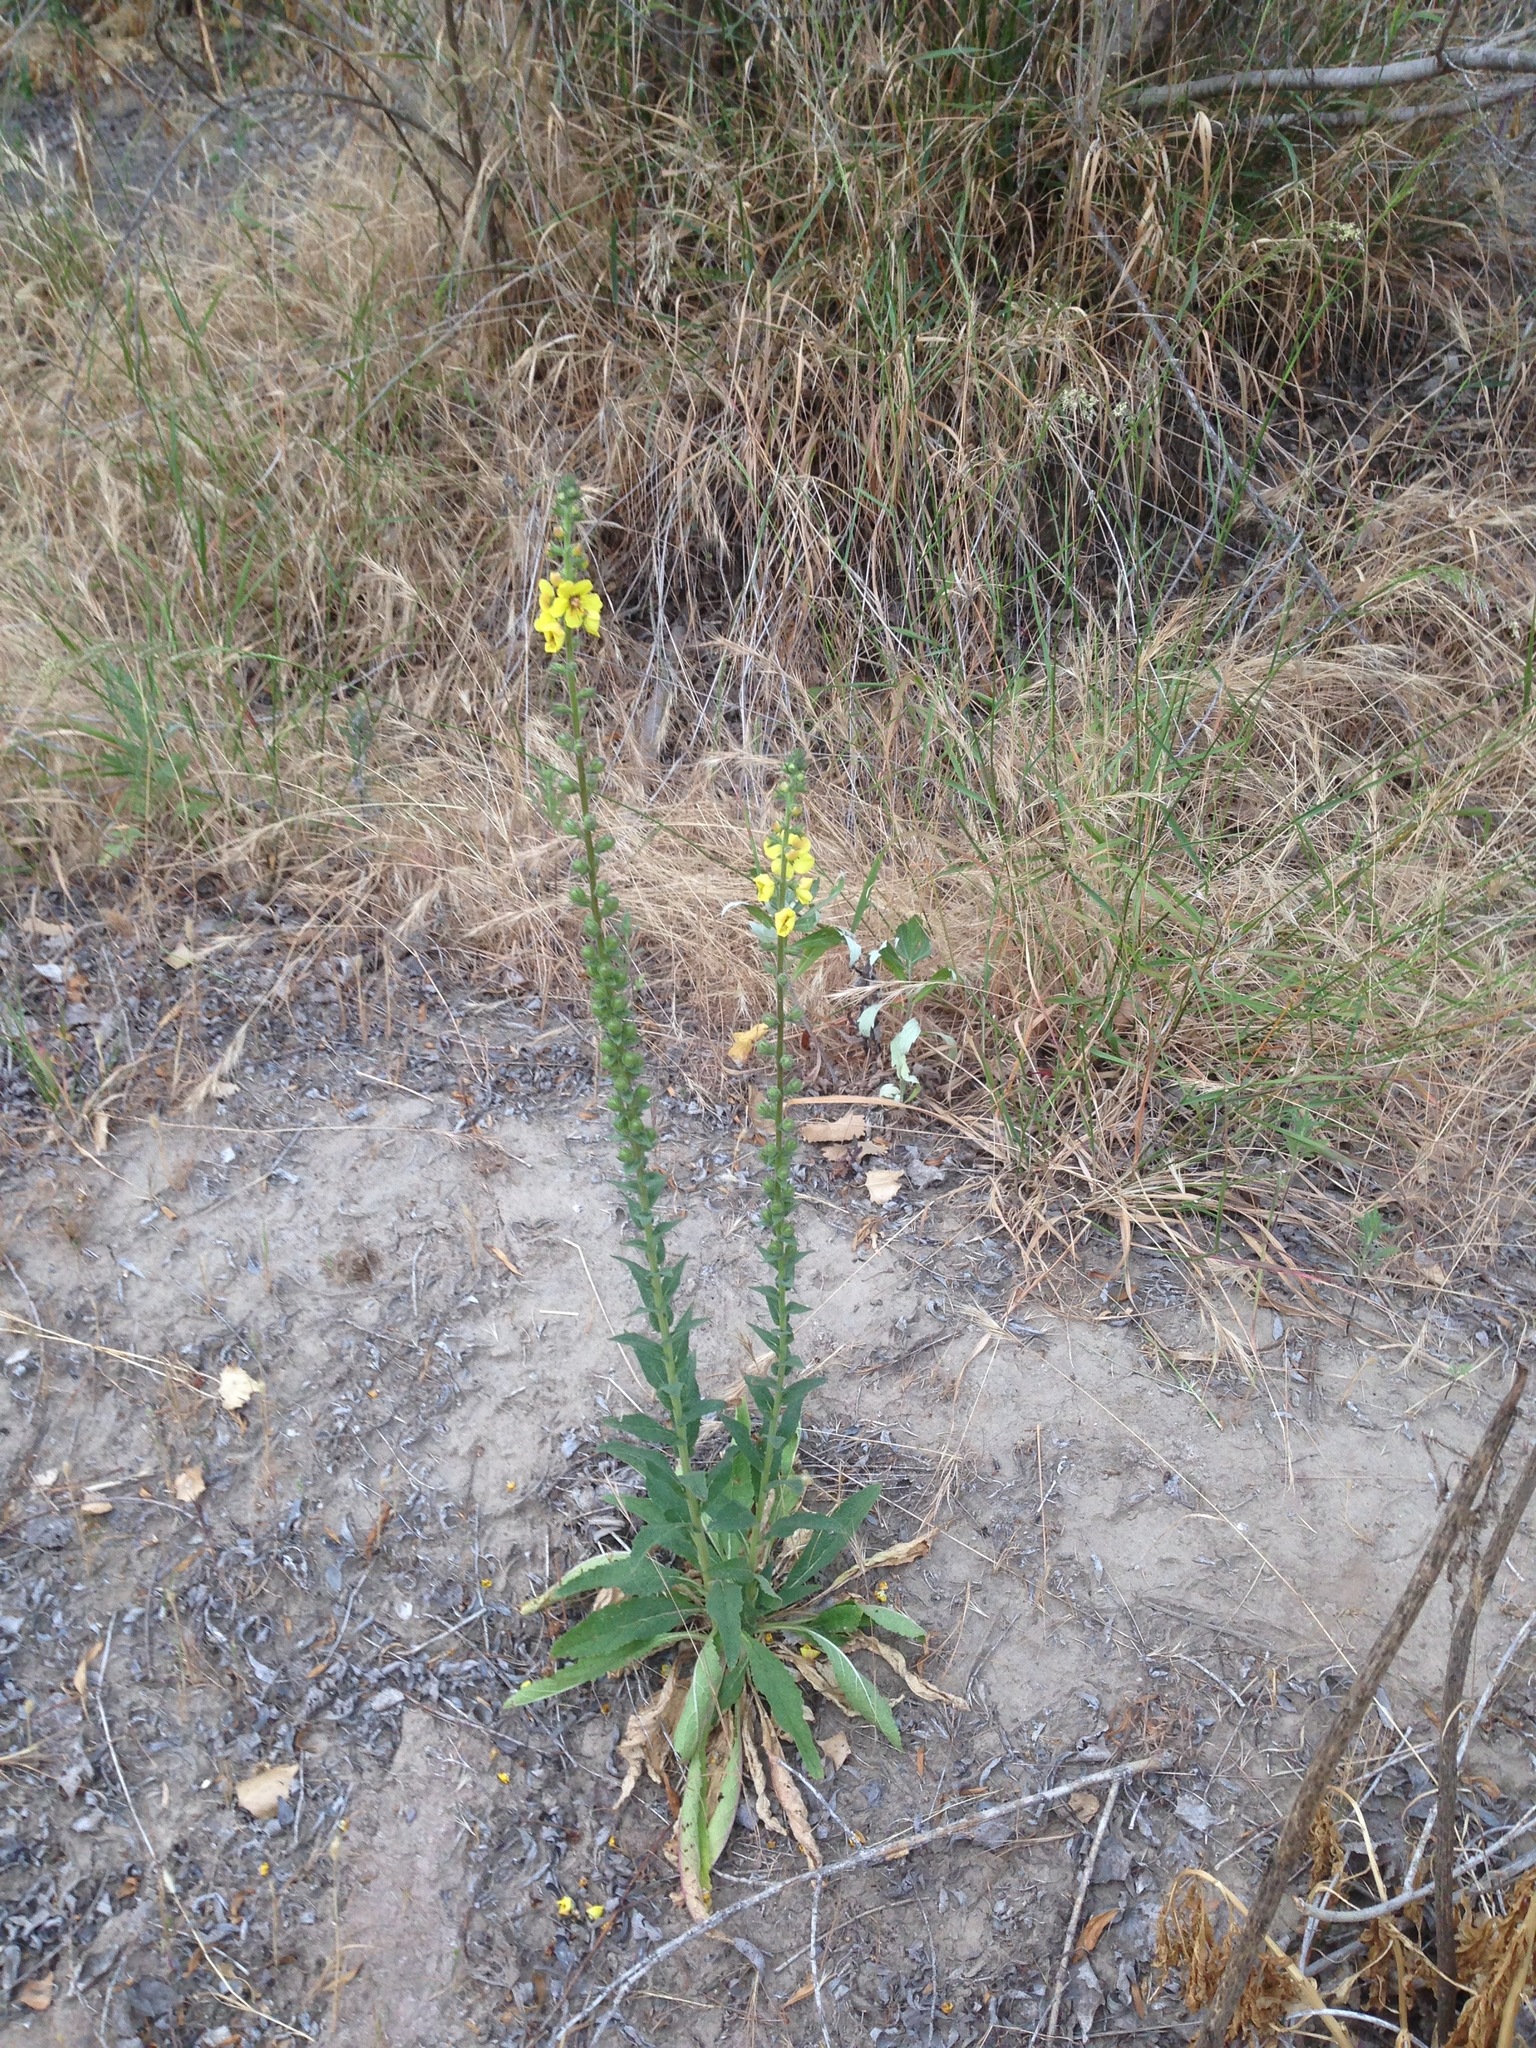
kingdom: Plantae
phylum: Tracheophyta
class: Magnoliopsida
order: Lamiales
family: Scrophulariaceae
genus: Verbascum
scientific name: Verbascum virgatum
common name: Twiggy mullein
